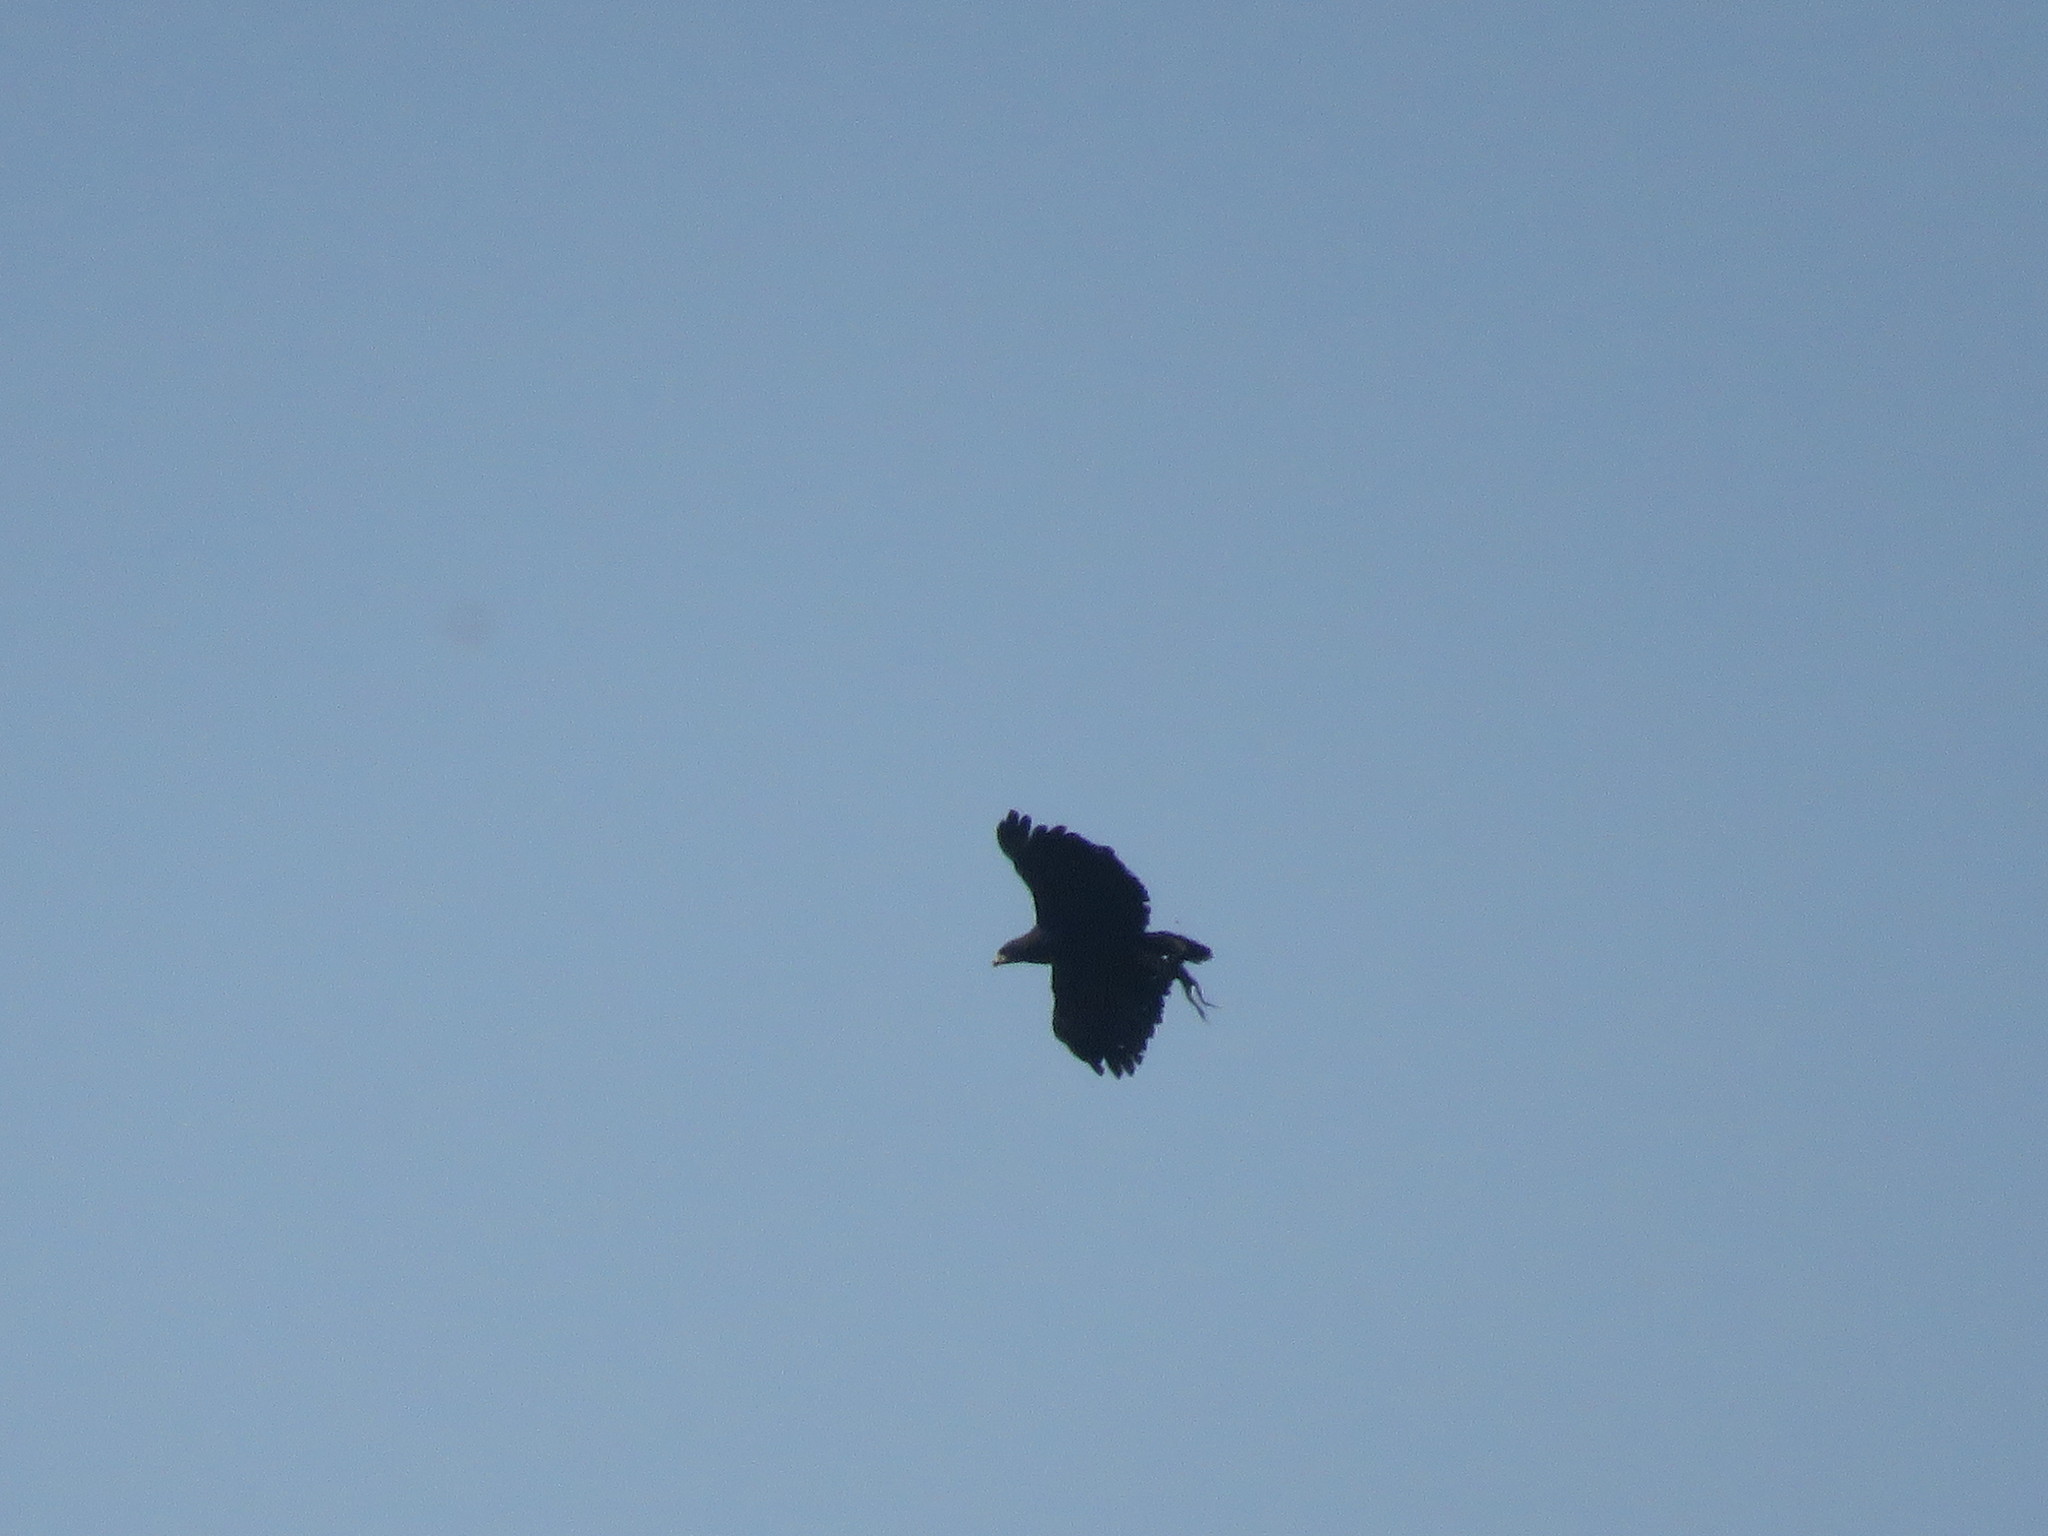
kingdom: Animalia
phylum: Chordata
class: Aves
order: Accipitriformes
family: Accipitridae
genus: Buteogallus
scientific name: Buteogallus urubitinga
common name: Great black hawk
